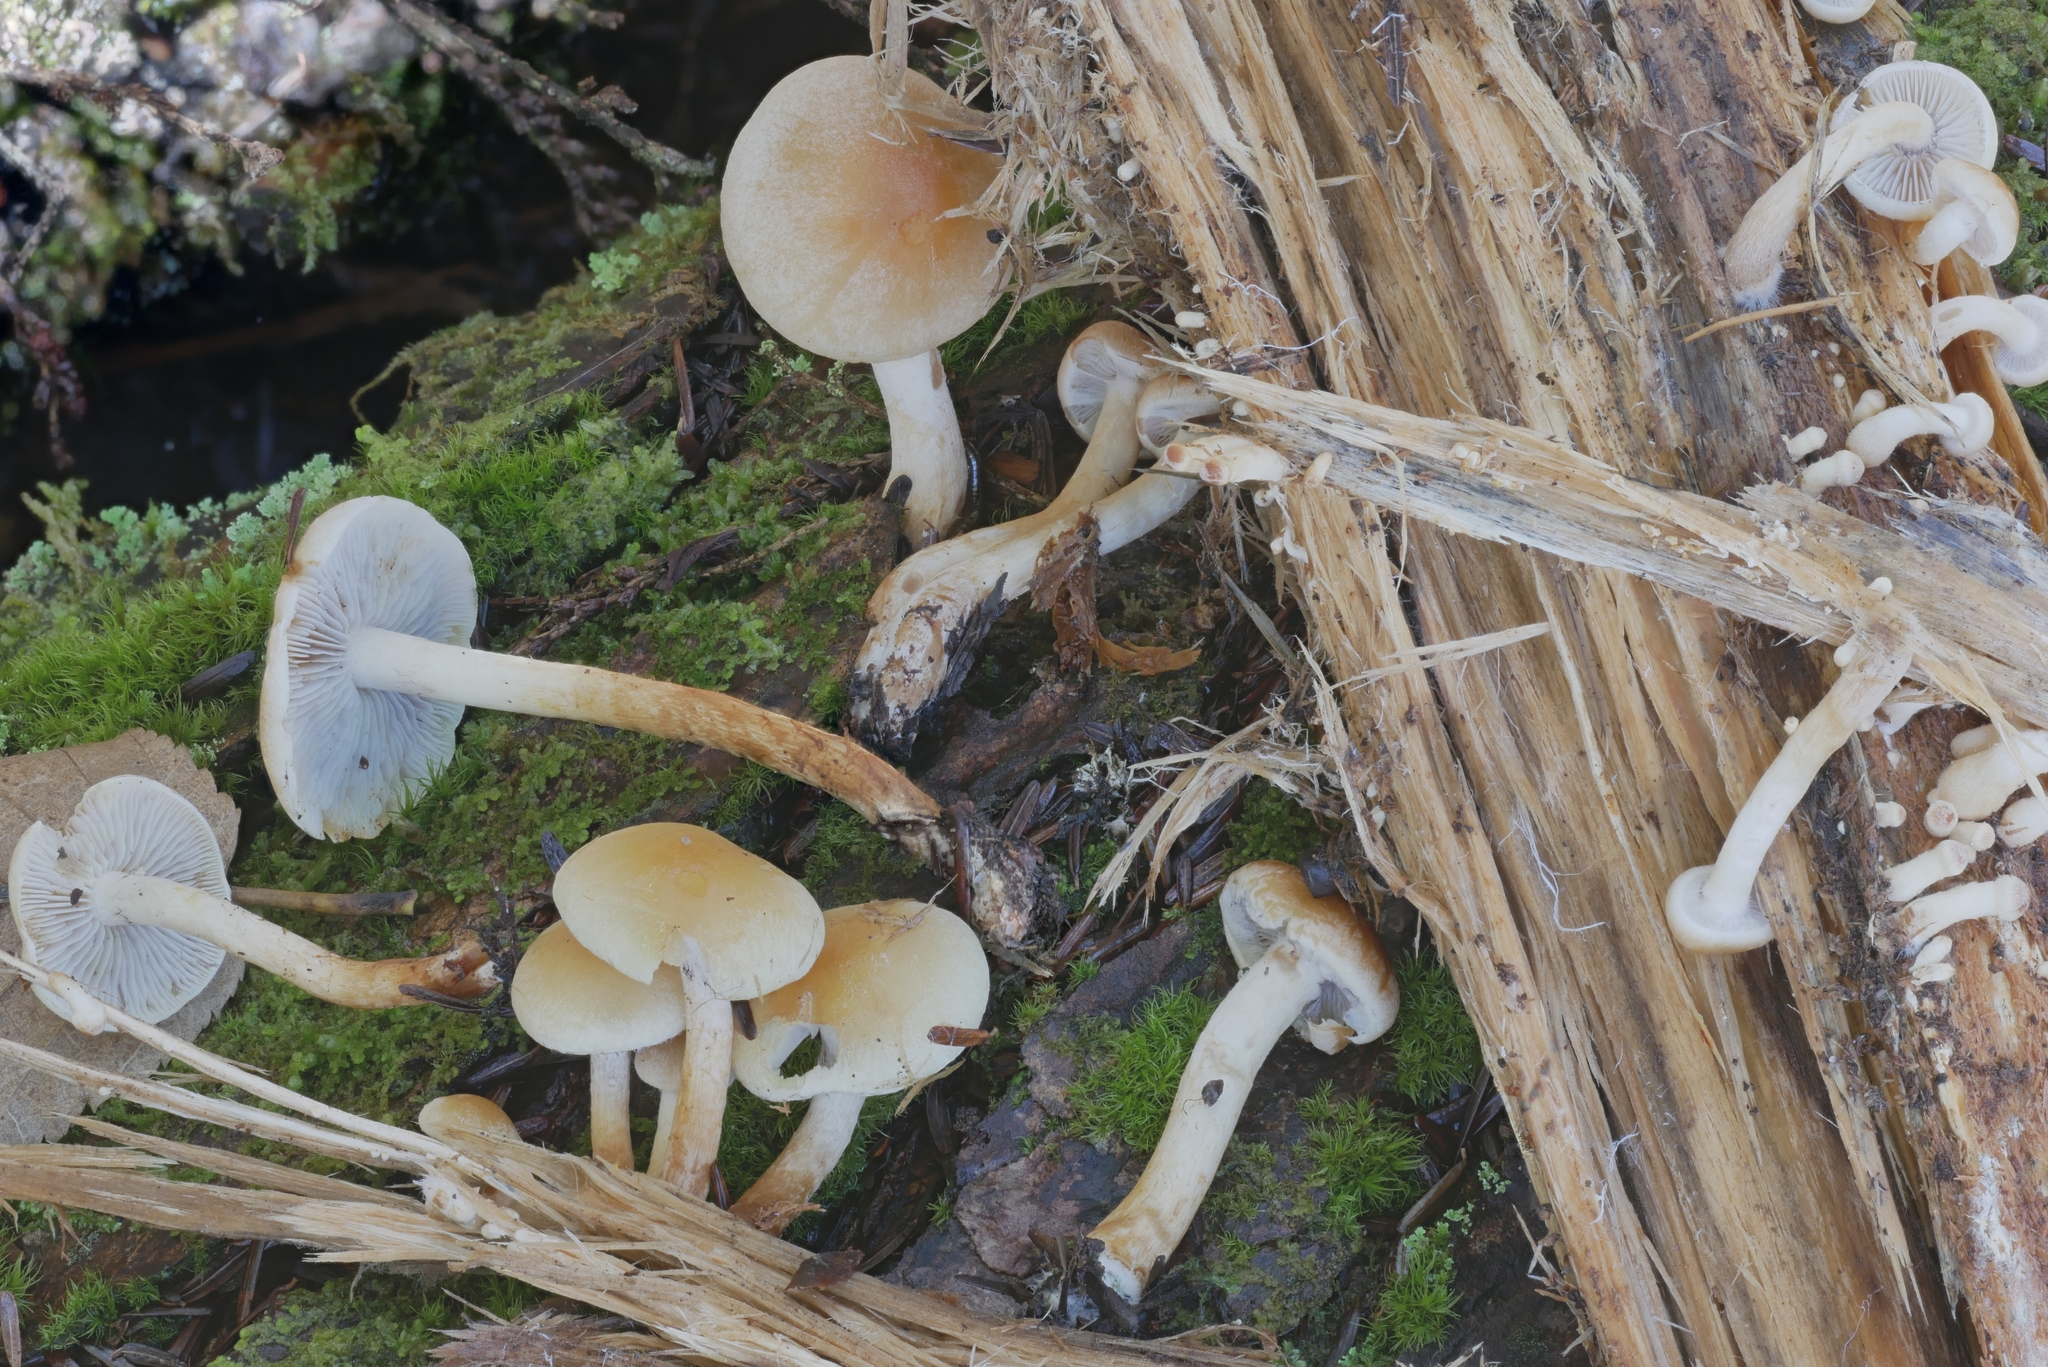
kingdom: Fungi
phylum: Basidiomycota
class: Agaricomycetes
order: Agaricales
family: Strophariaceae
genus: Hypholoma
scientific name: Hypholoma capnoides
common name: Conifer tuft
